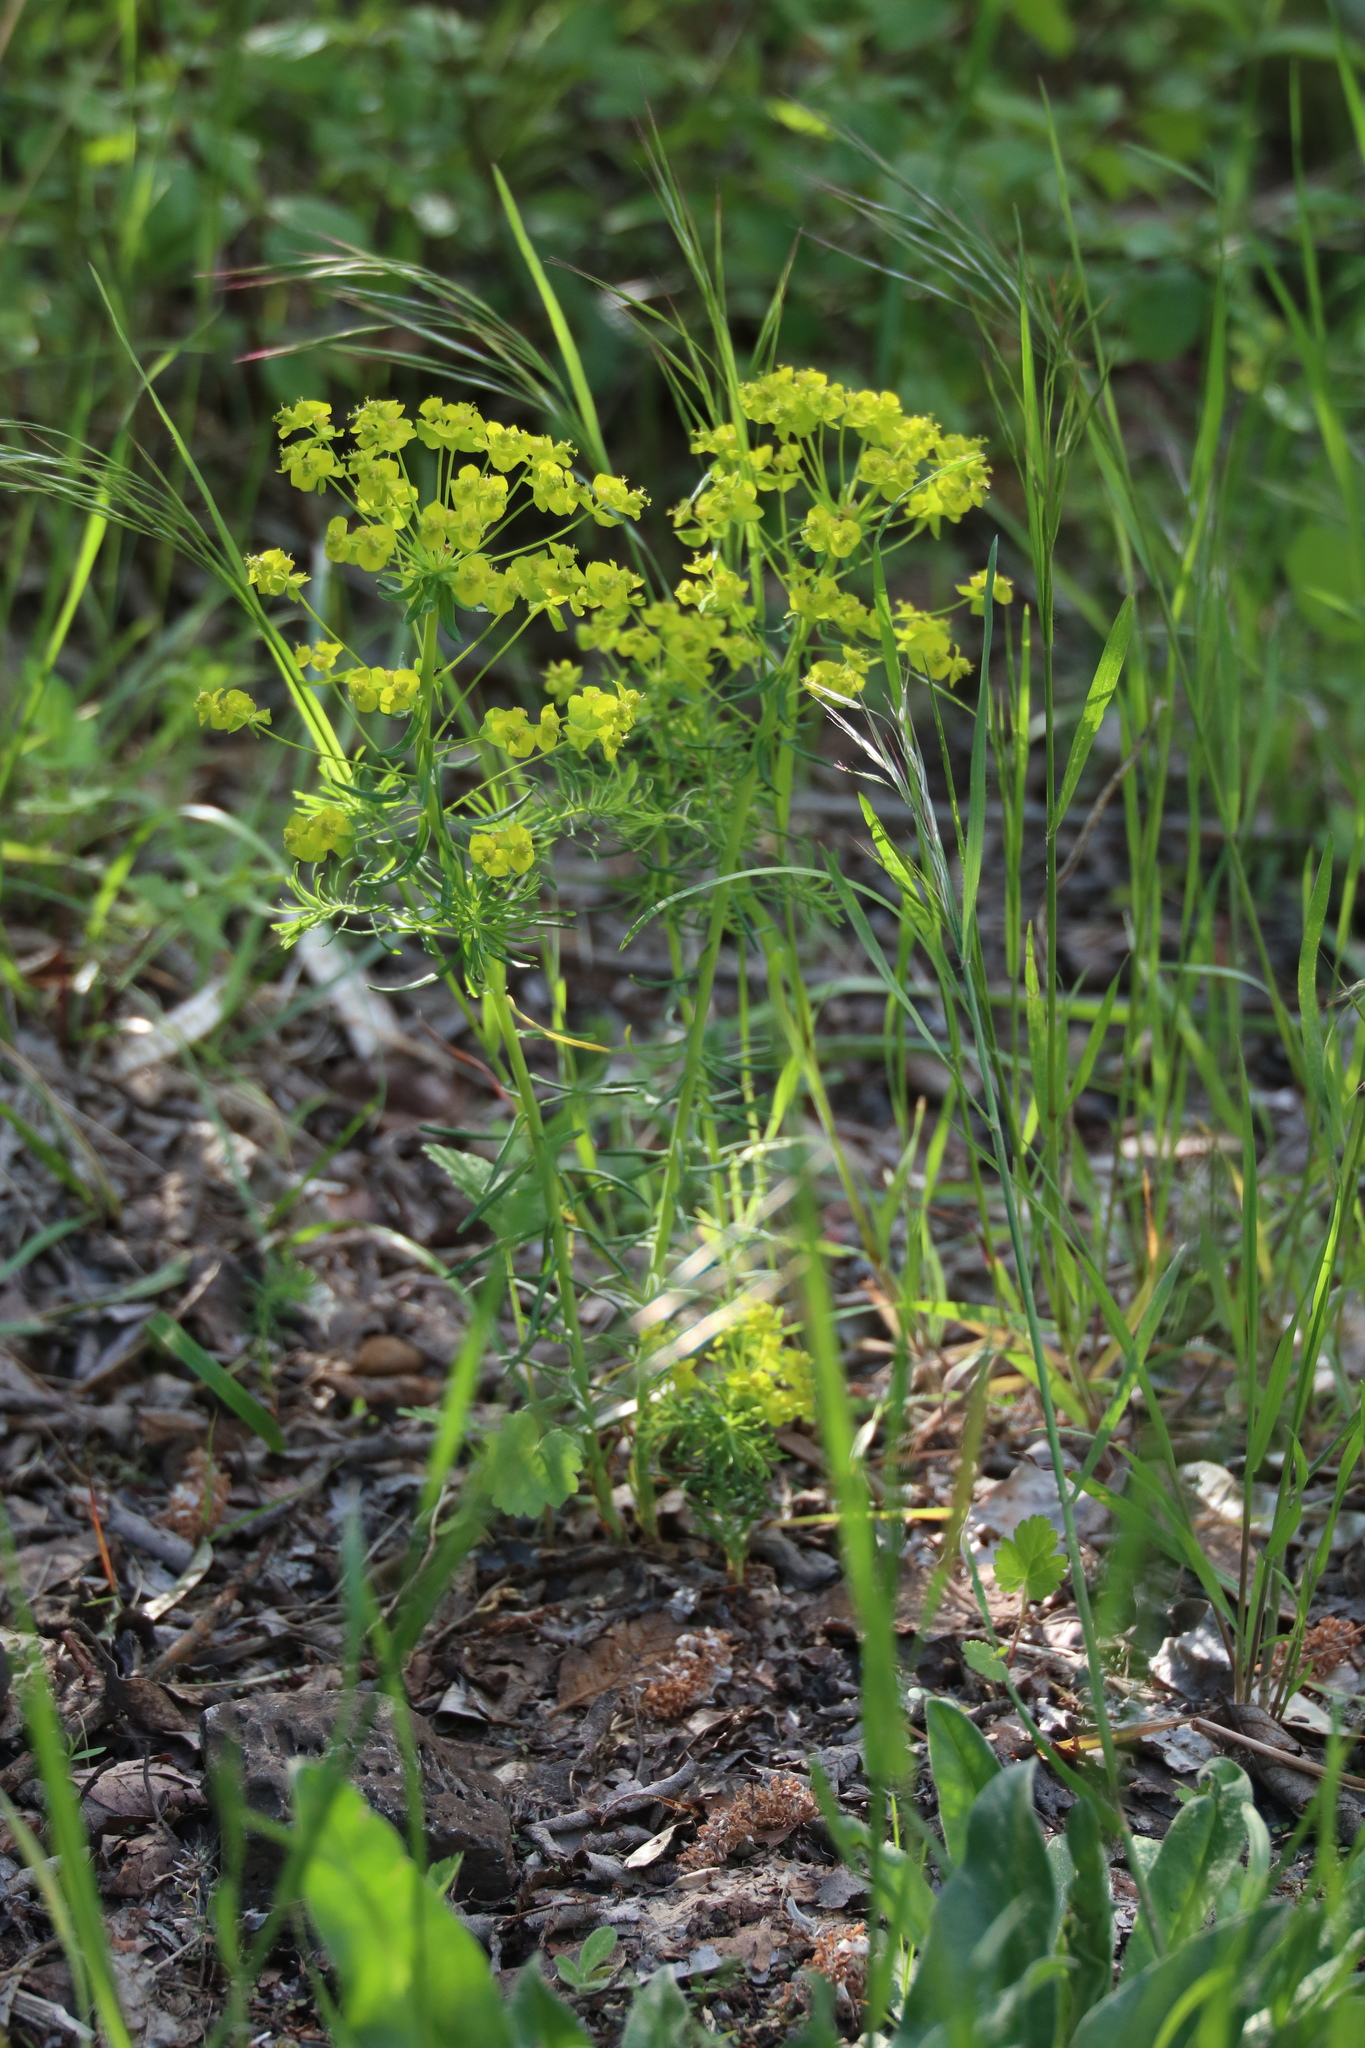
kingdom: Plantae
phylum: Tracheophyta
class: Magnoliopsida
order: Malpighiales
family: Euphorbiaceae
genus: Euphorbia
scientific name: Euphorbia cyparissias
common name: Cypress spurge
